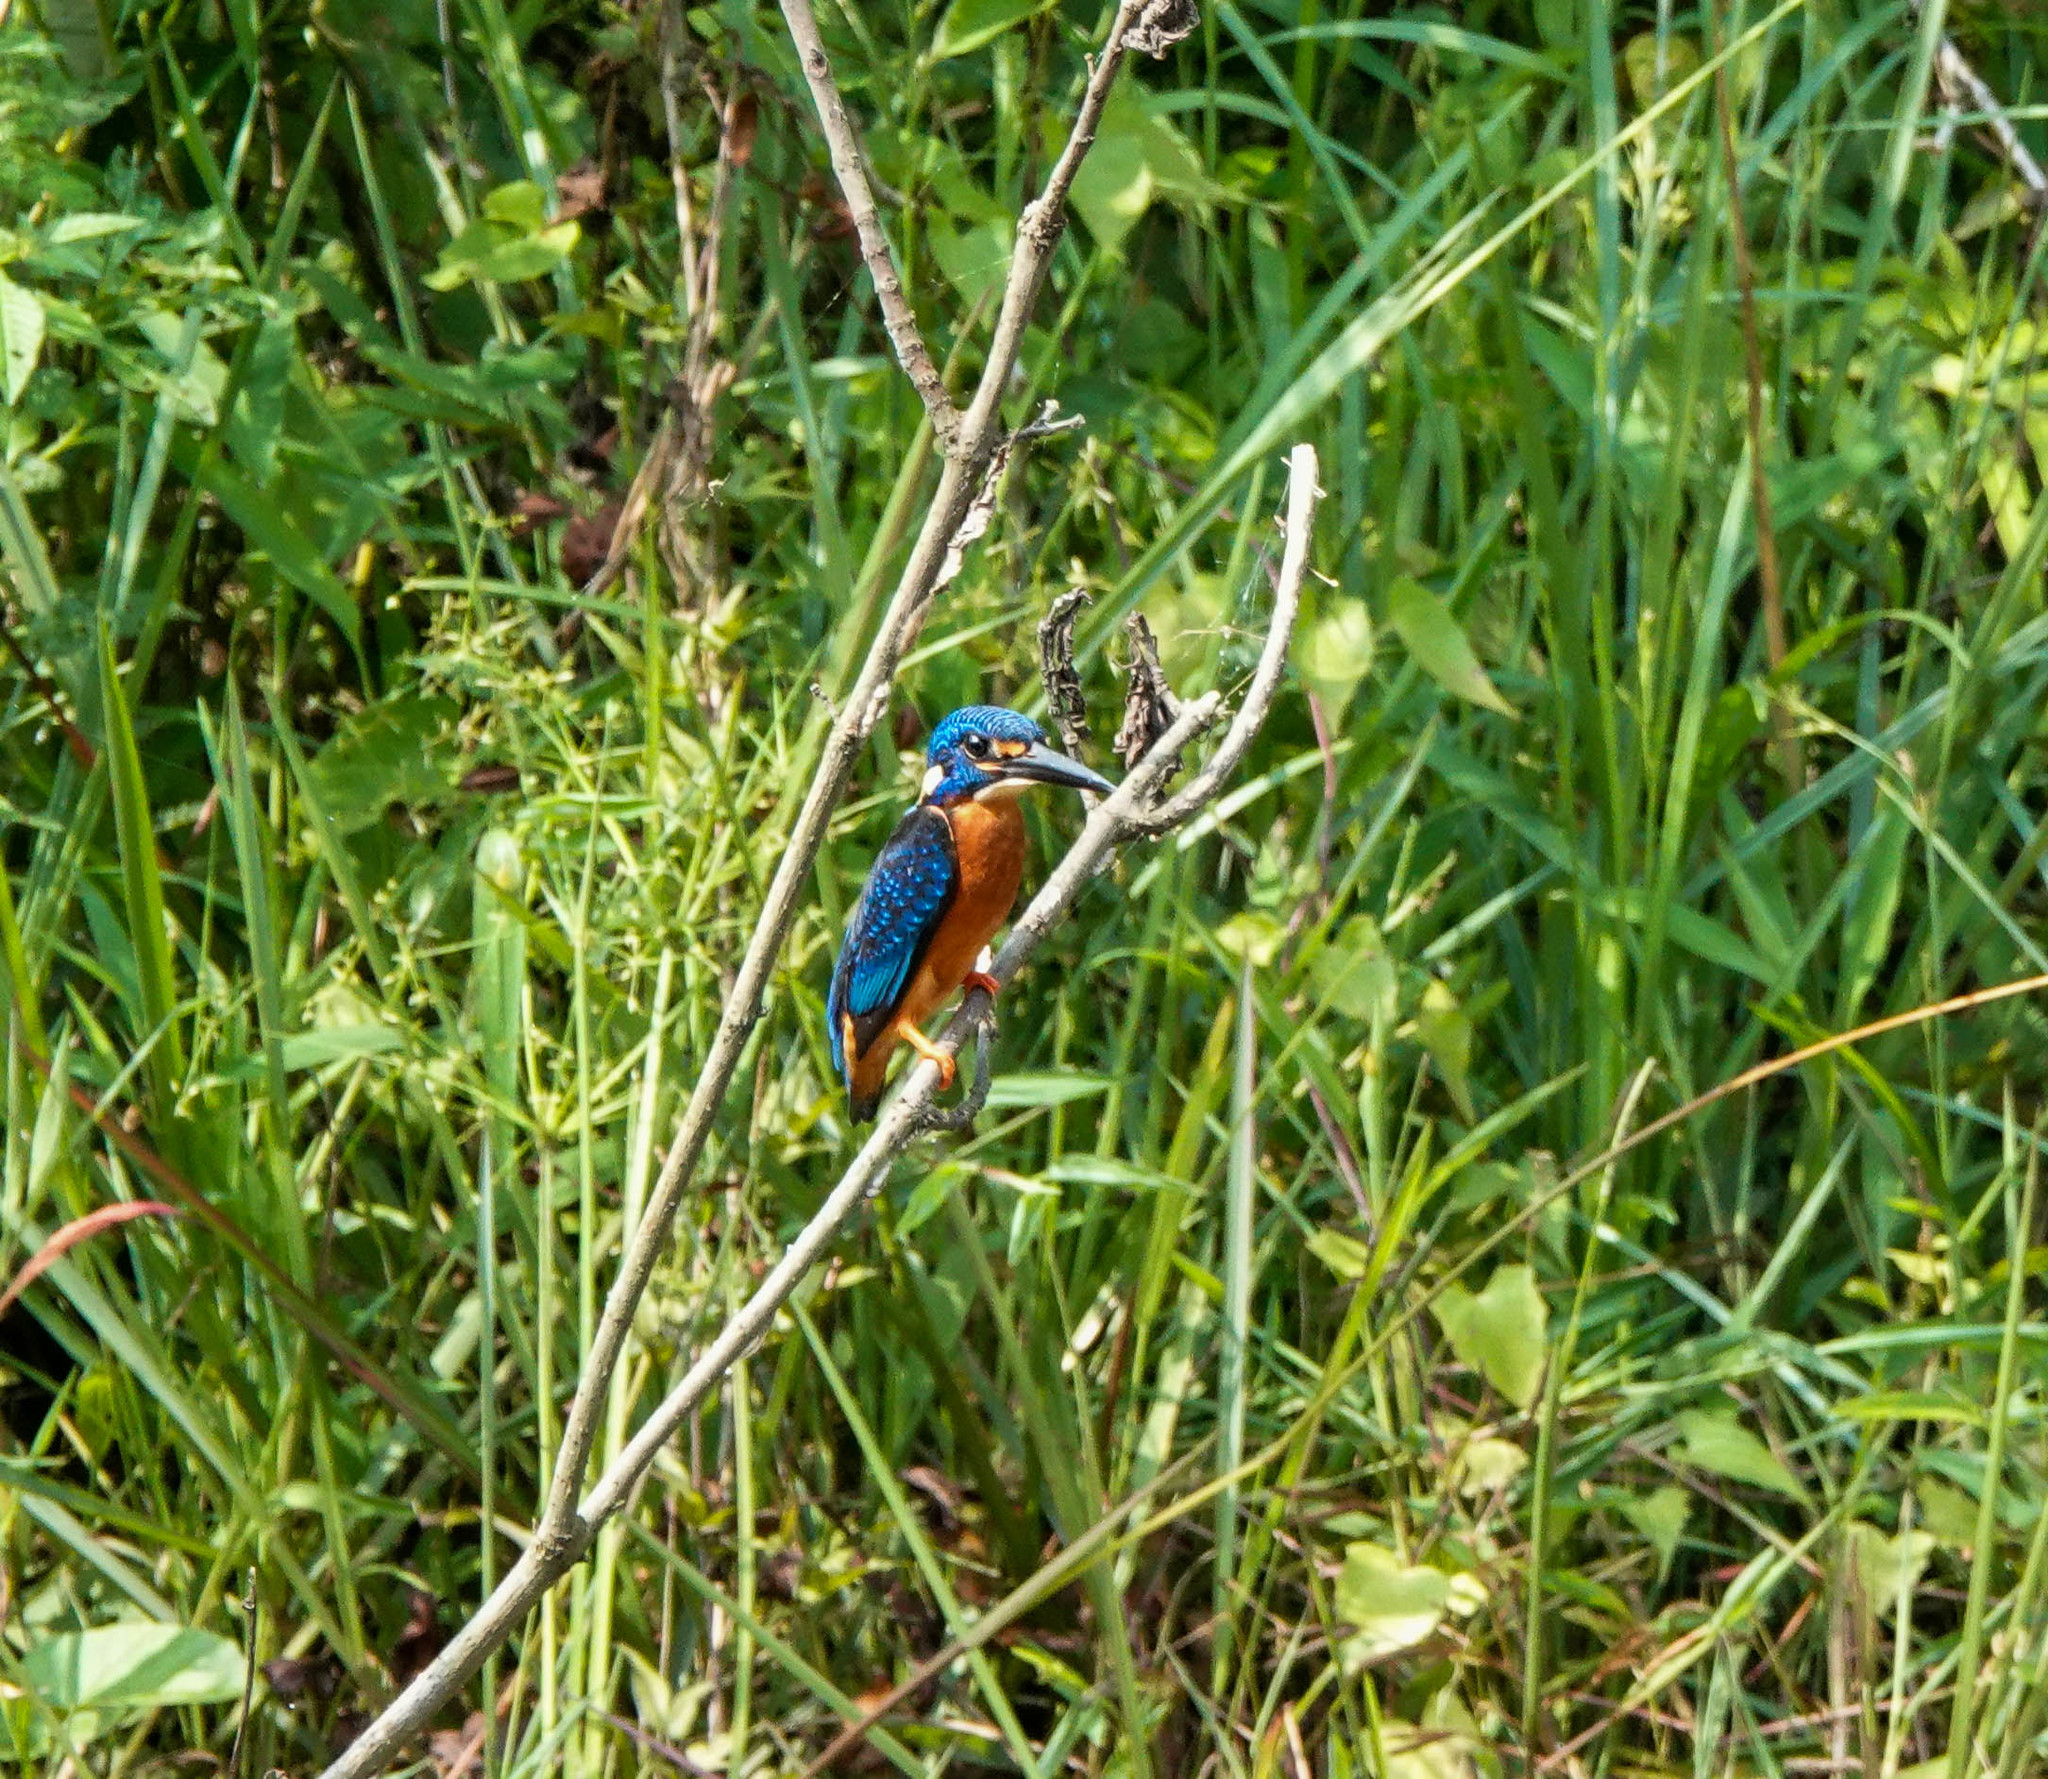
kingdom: Animalia
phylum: Chordata
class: Aves
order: Coraciiformes
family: Alcedinidae
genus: Alcedo
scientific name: Alcedo meninting
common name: Blue-eared kingfisher
